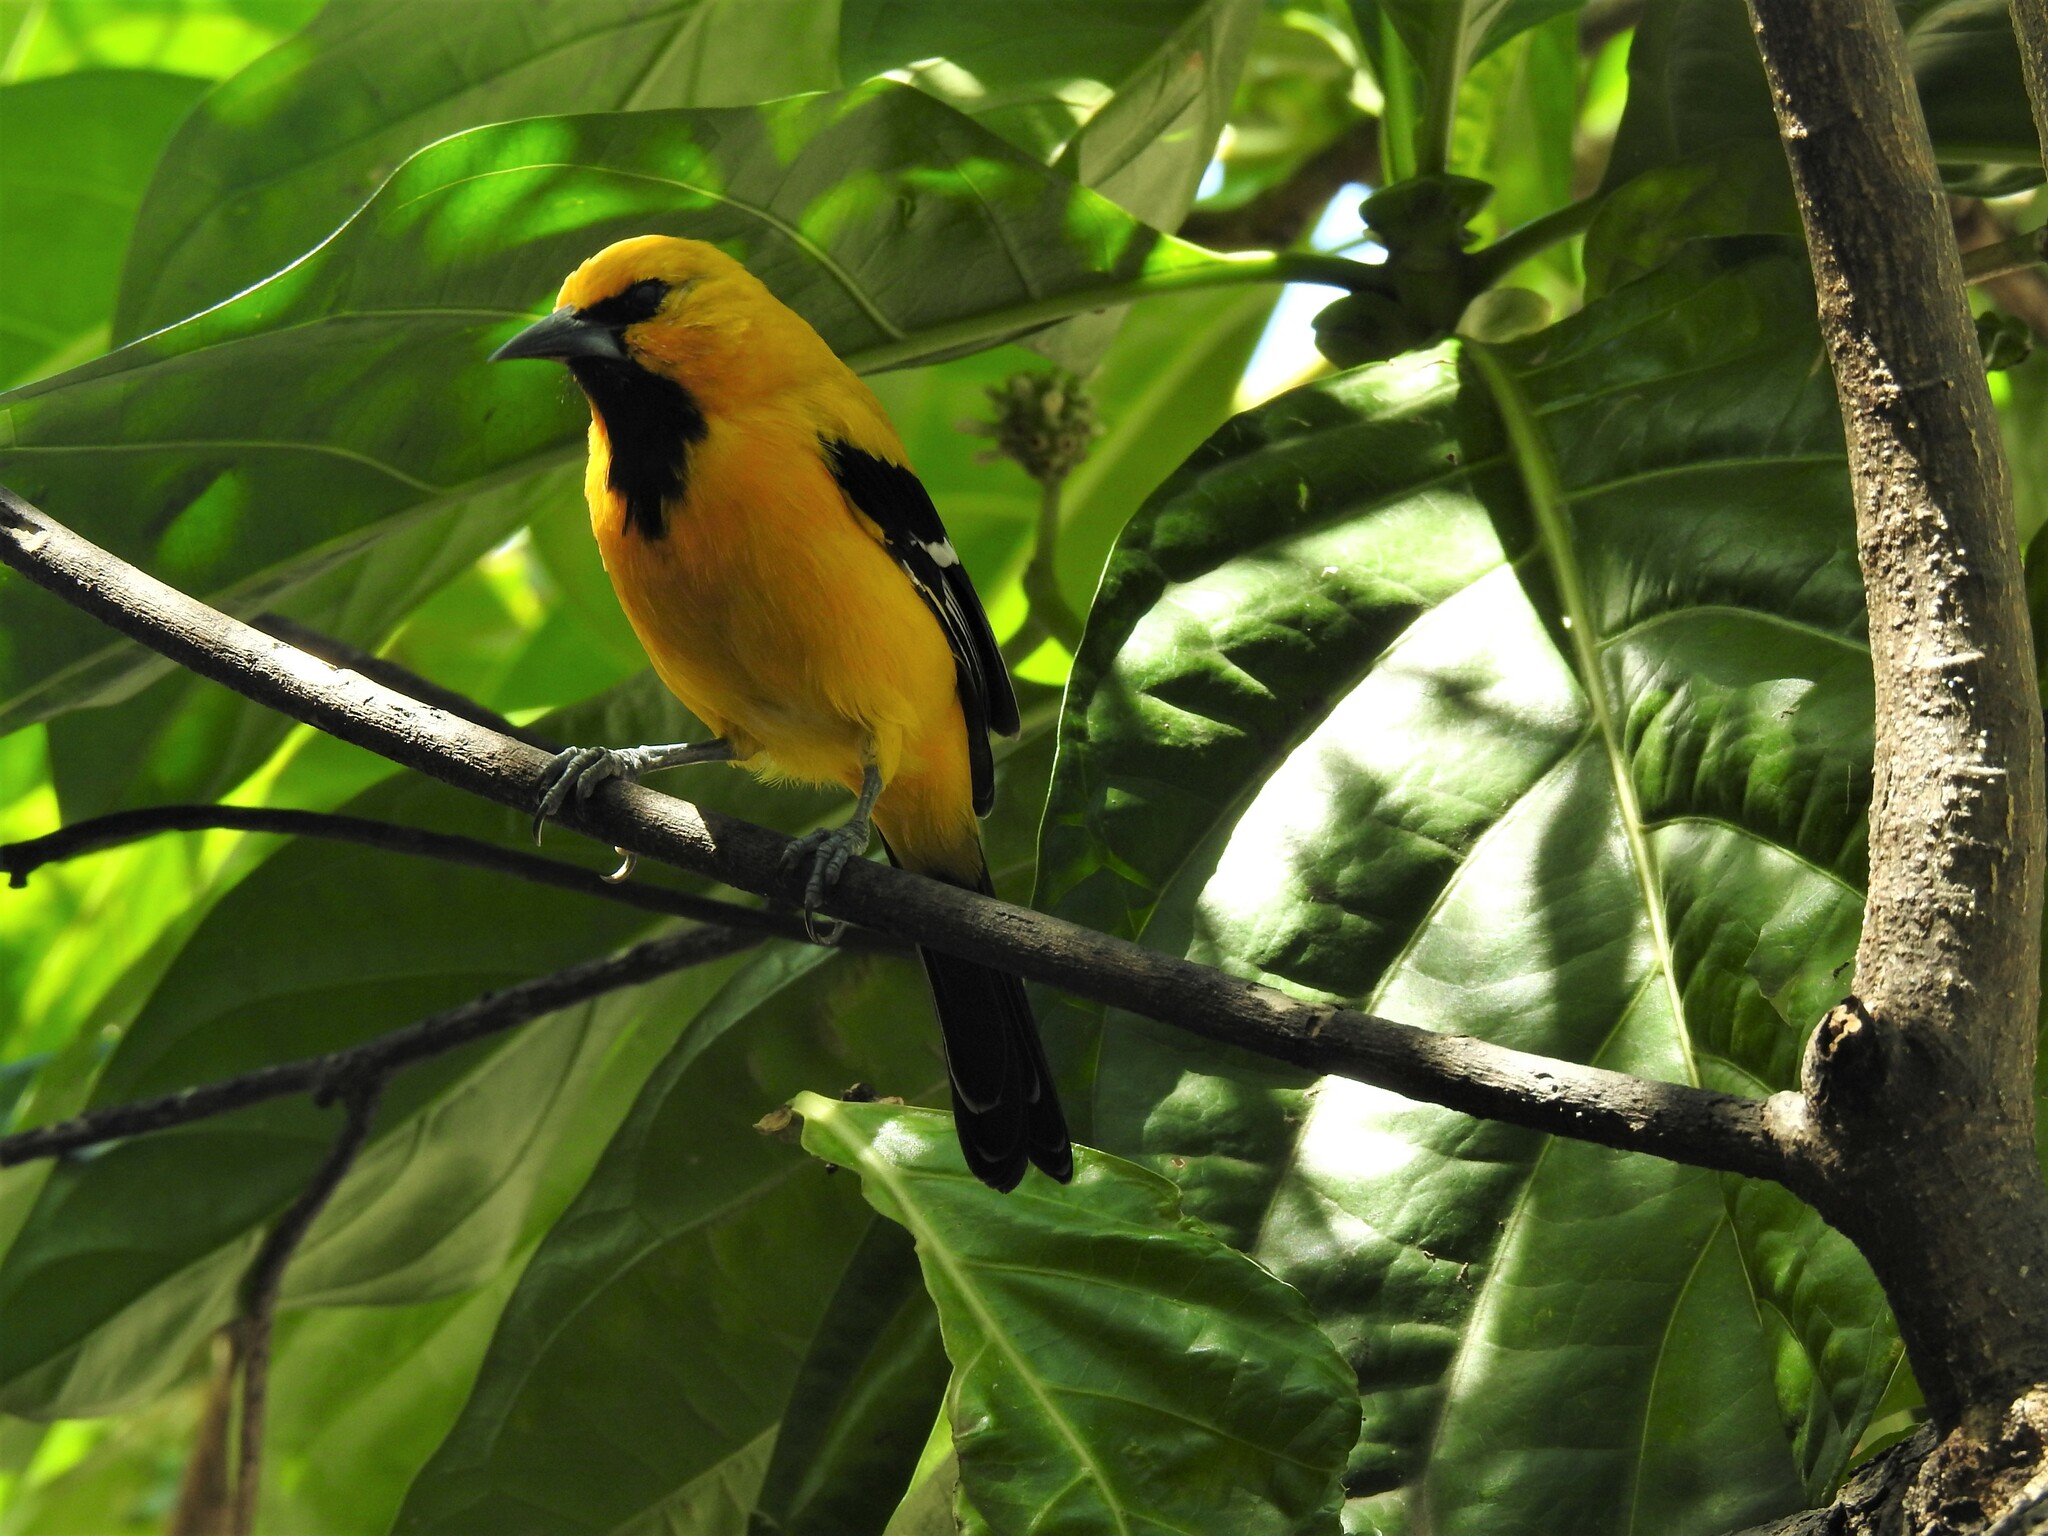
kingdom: Animalia
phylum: Chordata
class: Aves
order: Passeriformes
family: Icteridae
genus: Icterus
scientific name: Icterus nigrogularis
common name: Yellow oriole
